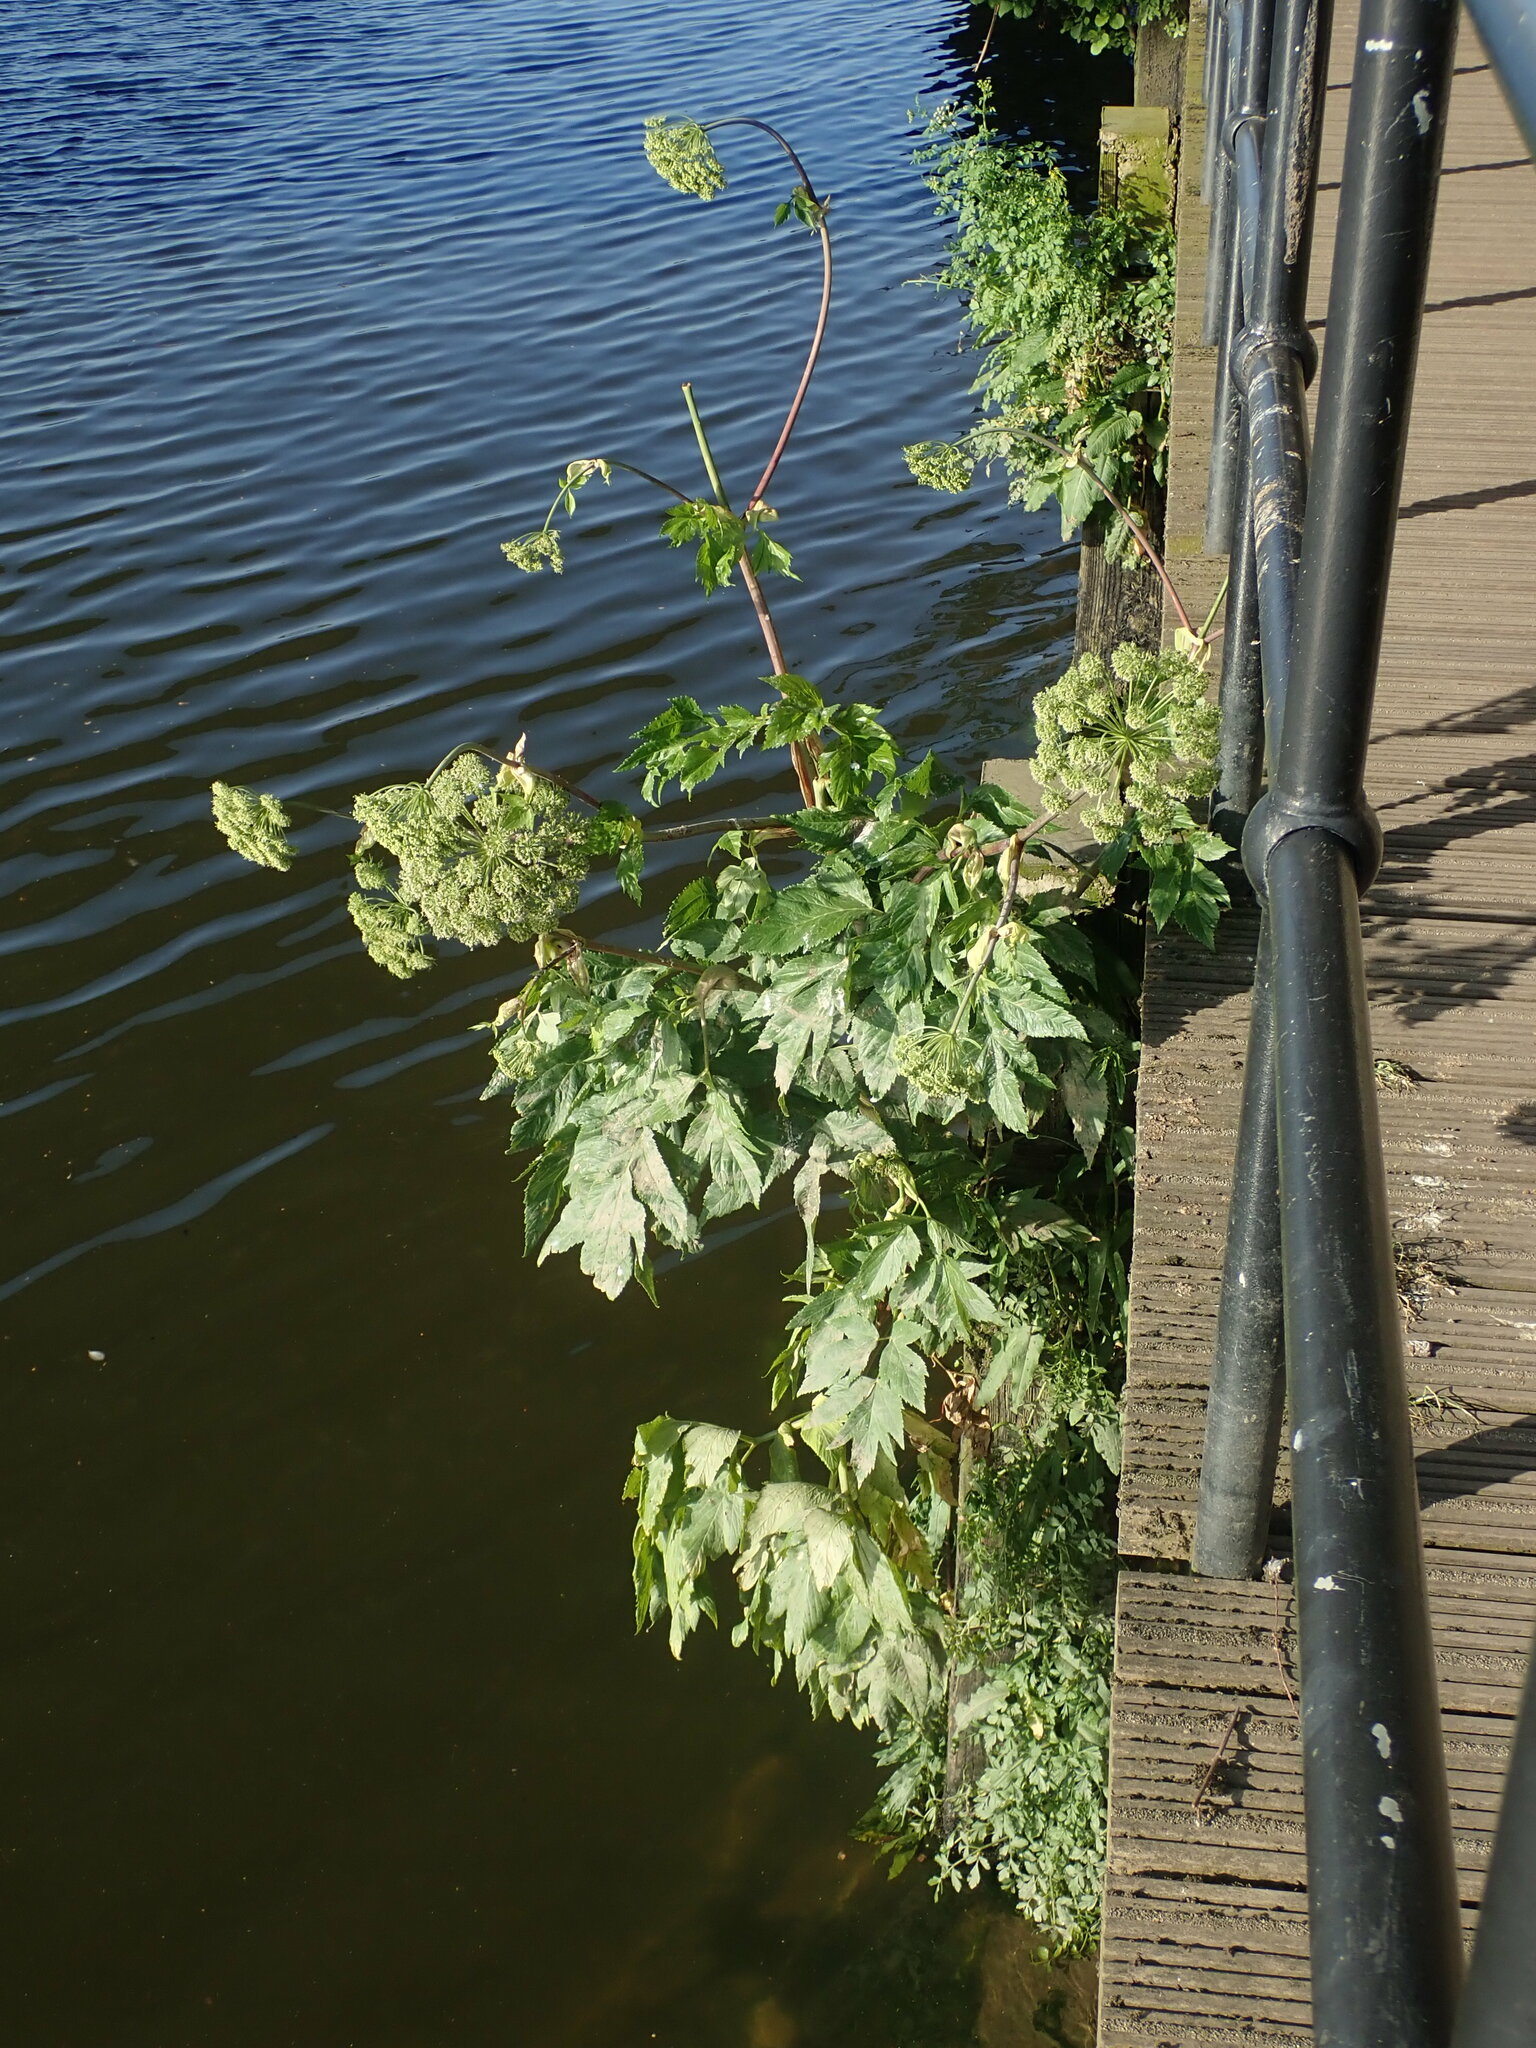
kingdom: Plantae
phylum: Tracheophyta
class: Magnoliopsida
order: Apiales
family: Apiaceae
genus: Angelica
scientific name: Angelica archangelica
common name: Garden angelica
